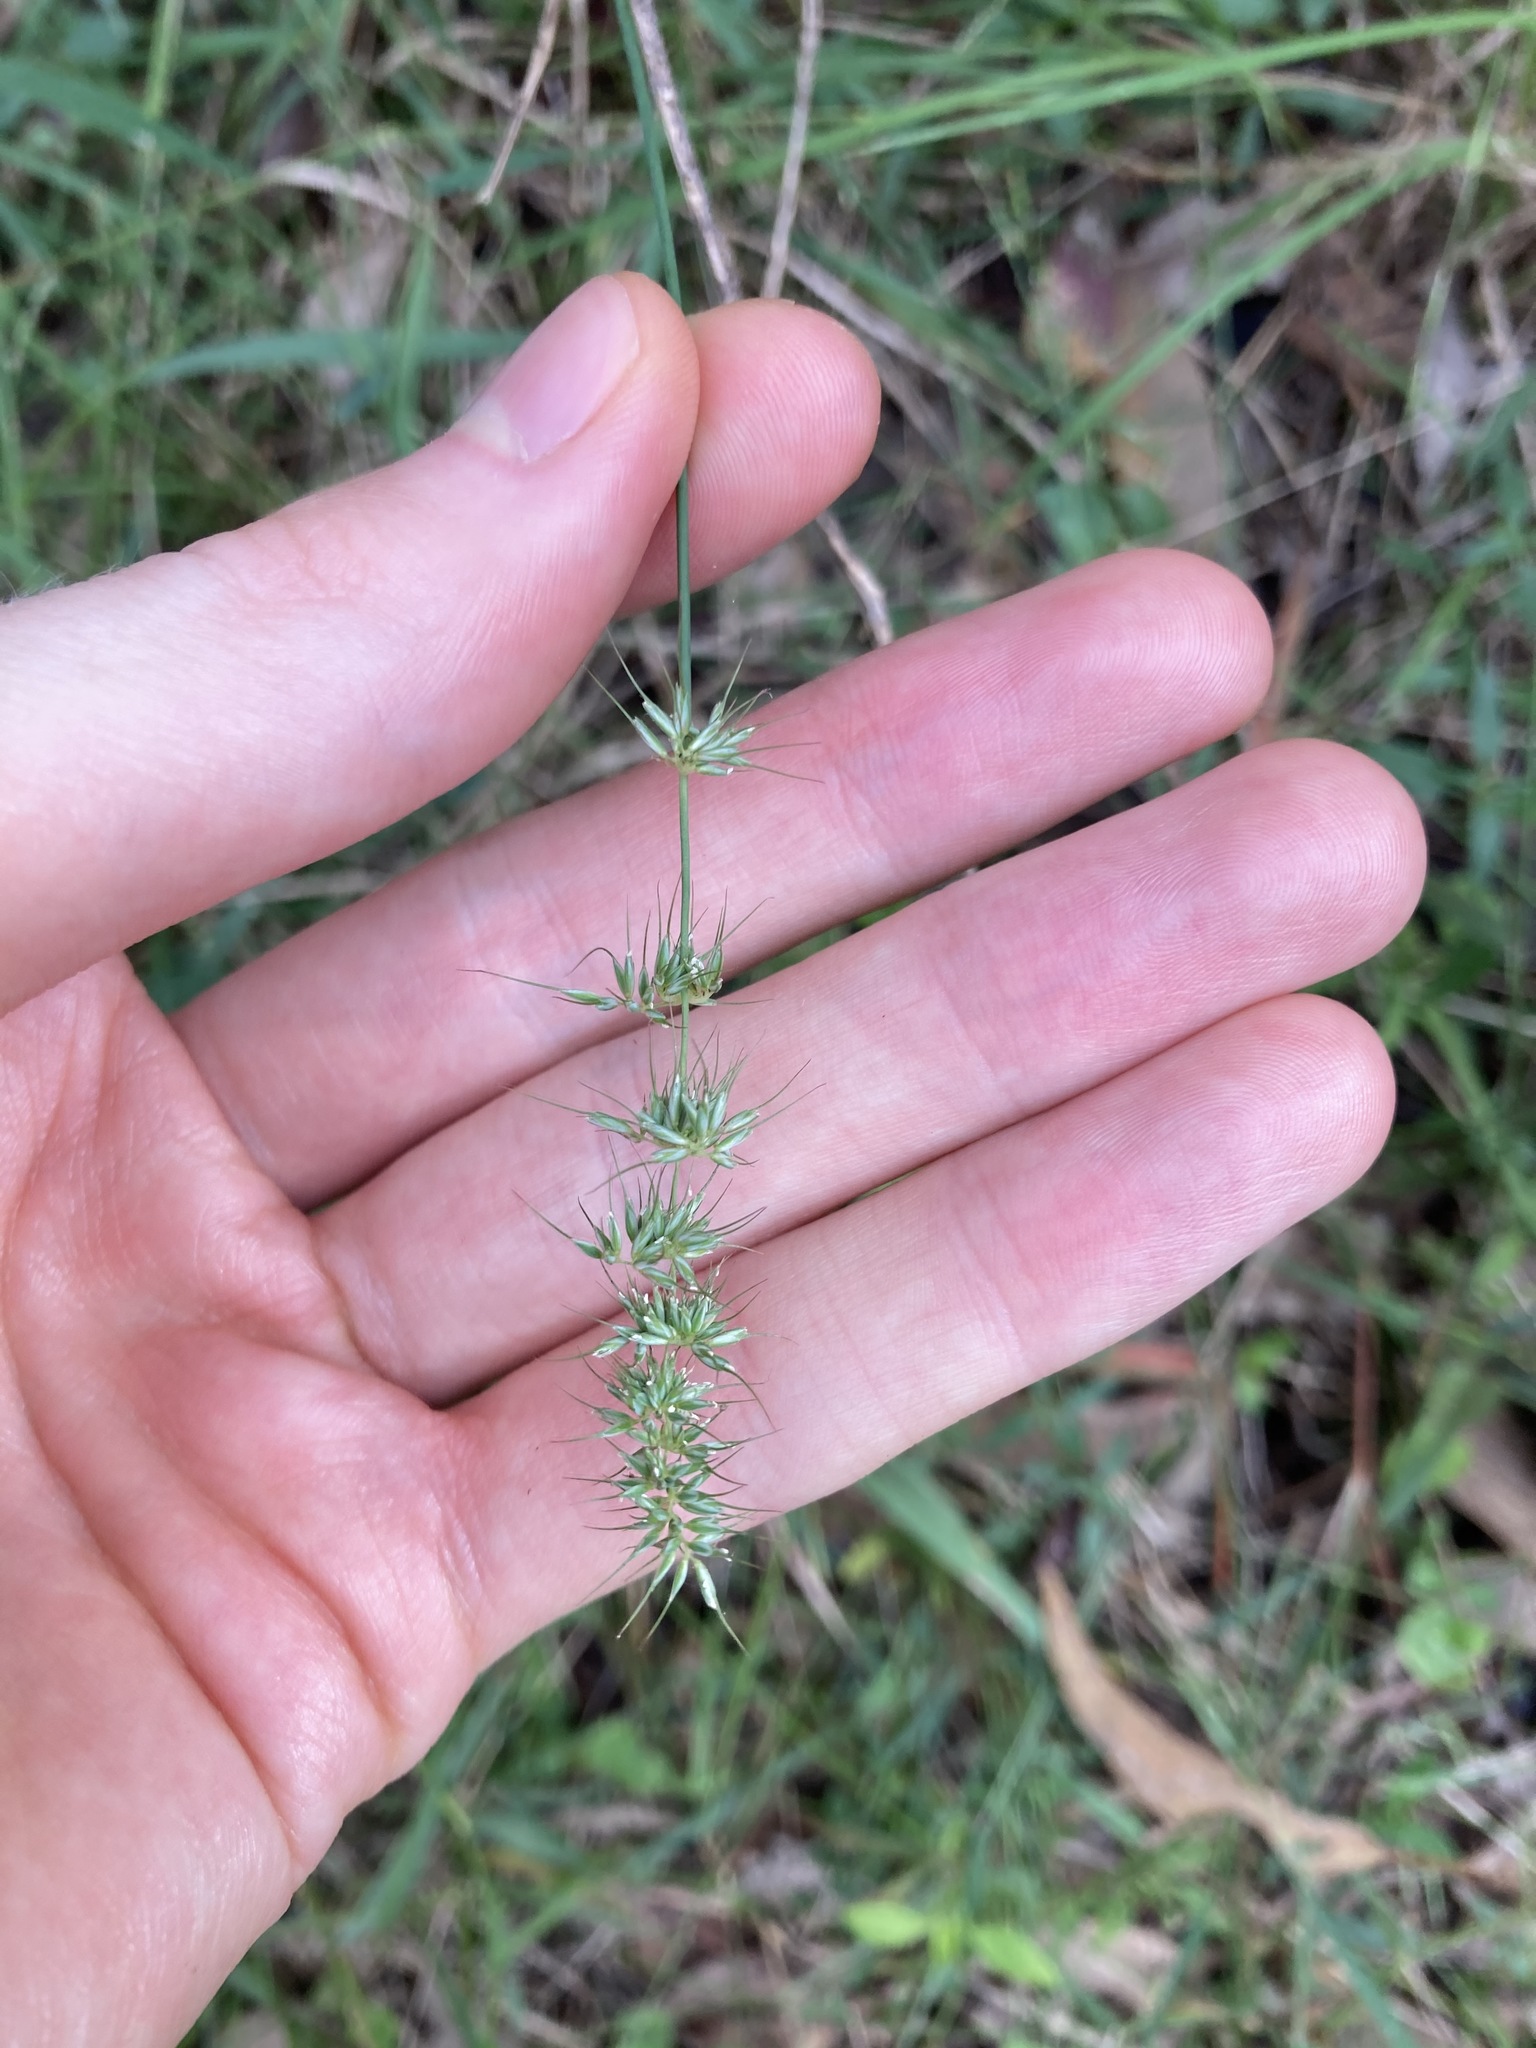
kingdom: Plantae
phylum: Tracheophyta
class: Liliopsida
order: Poales
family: Poaceae
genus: Echinopogon
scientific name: Echinopogon caespitosus
